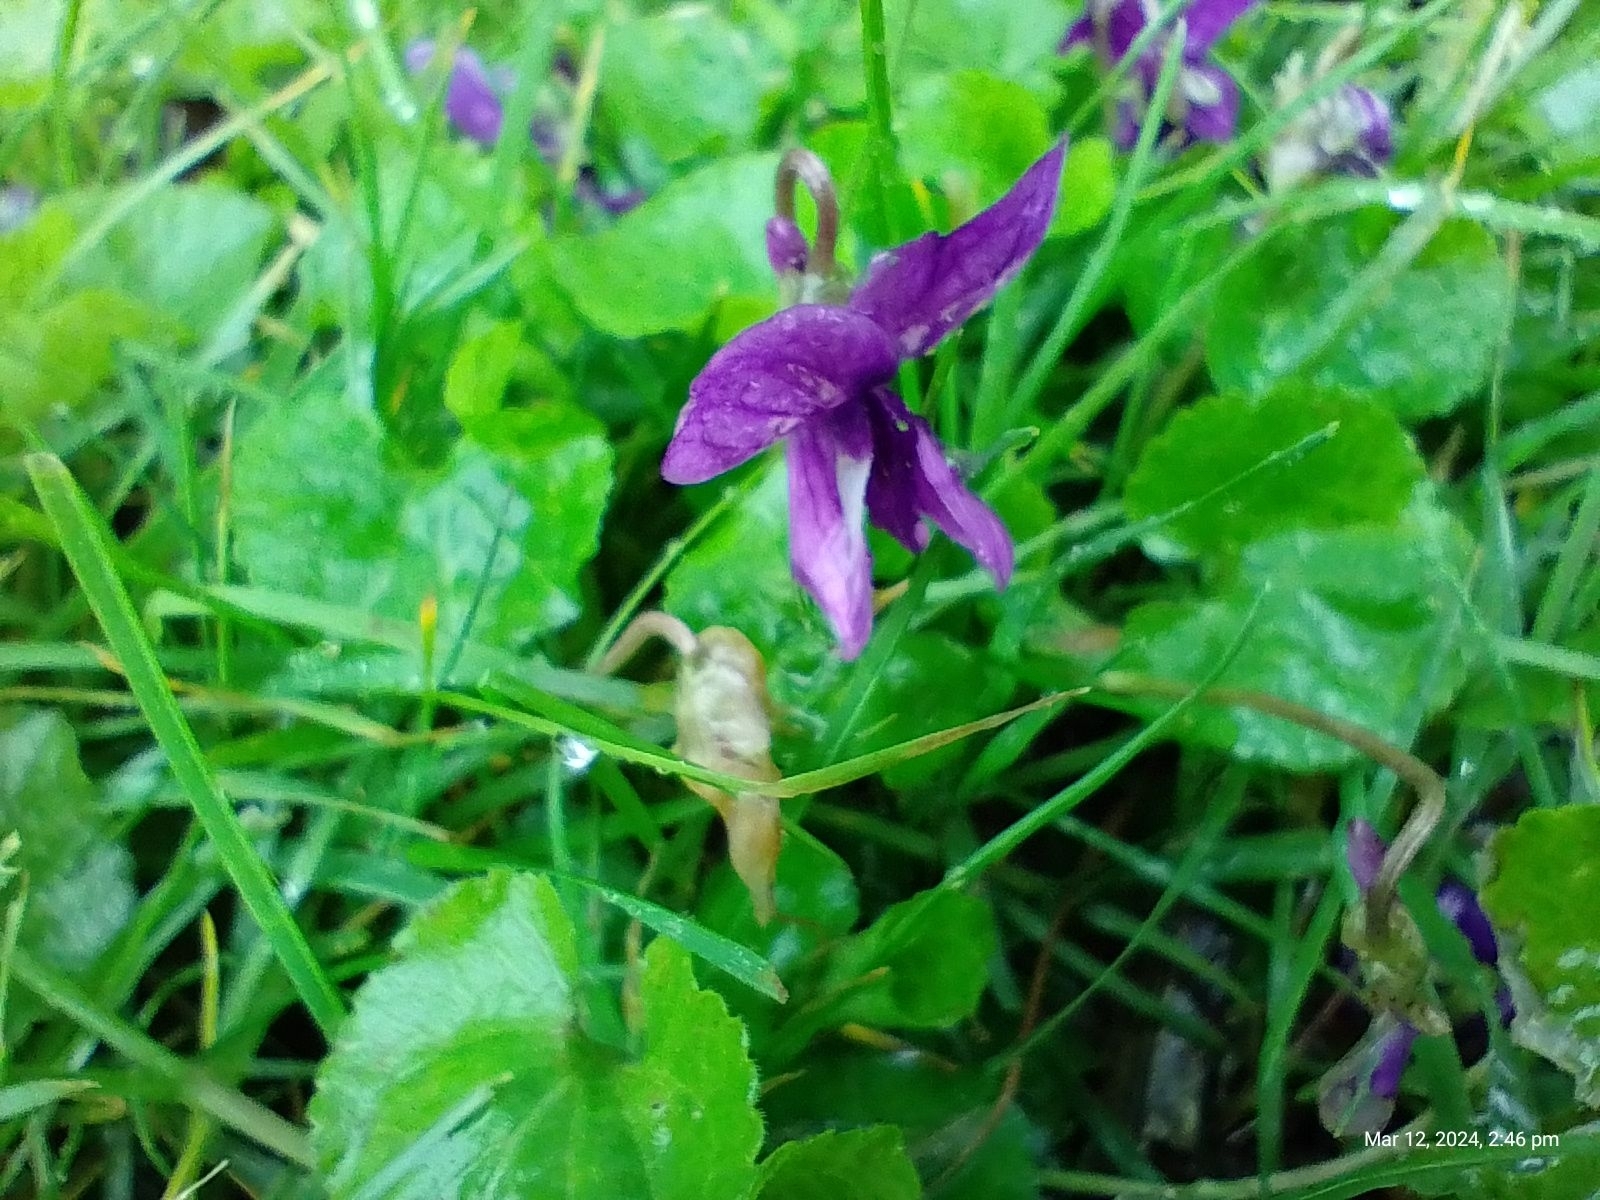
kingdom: Plantae
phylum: Tracheophyta
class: Magnoliopsida
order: Malpighiales
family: Violaceae
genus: Viola
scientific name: Viola odorata
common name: Sweet violet
